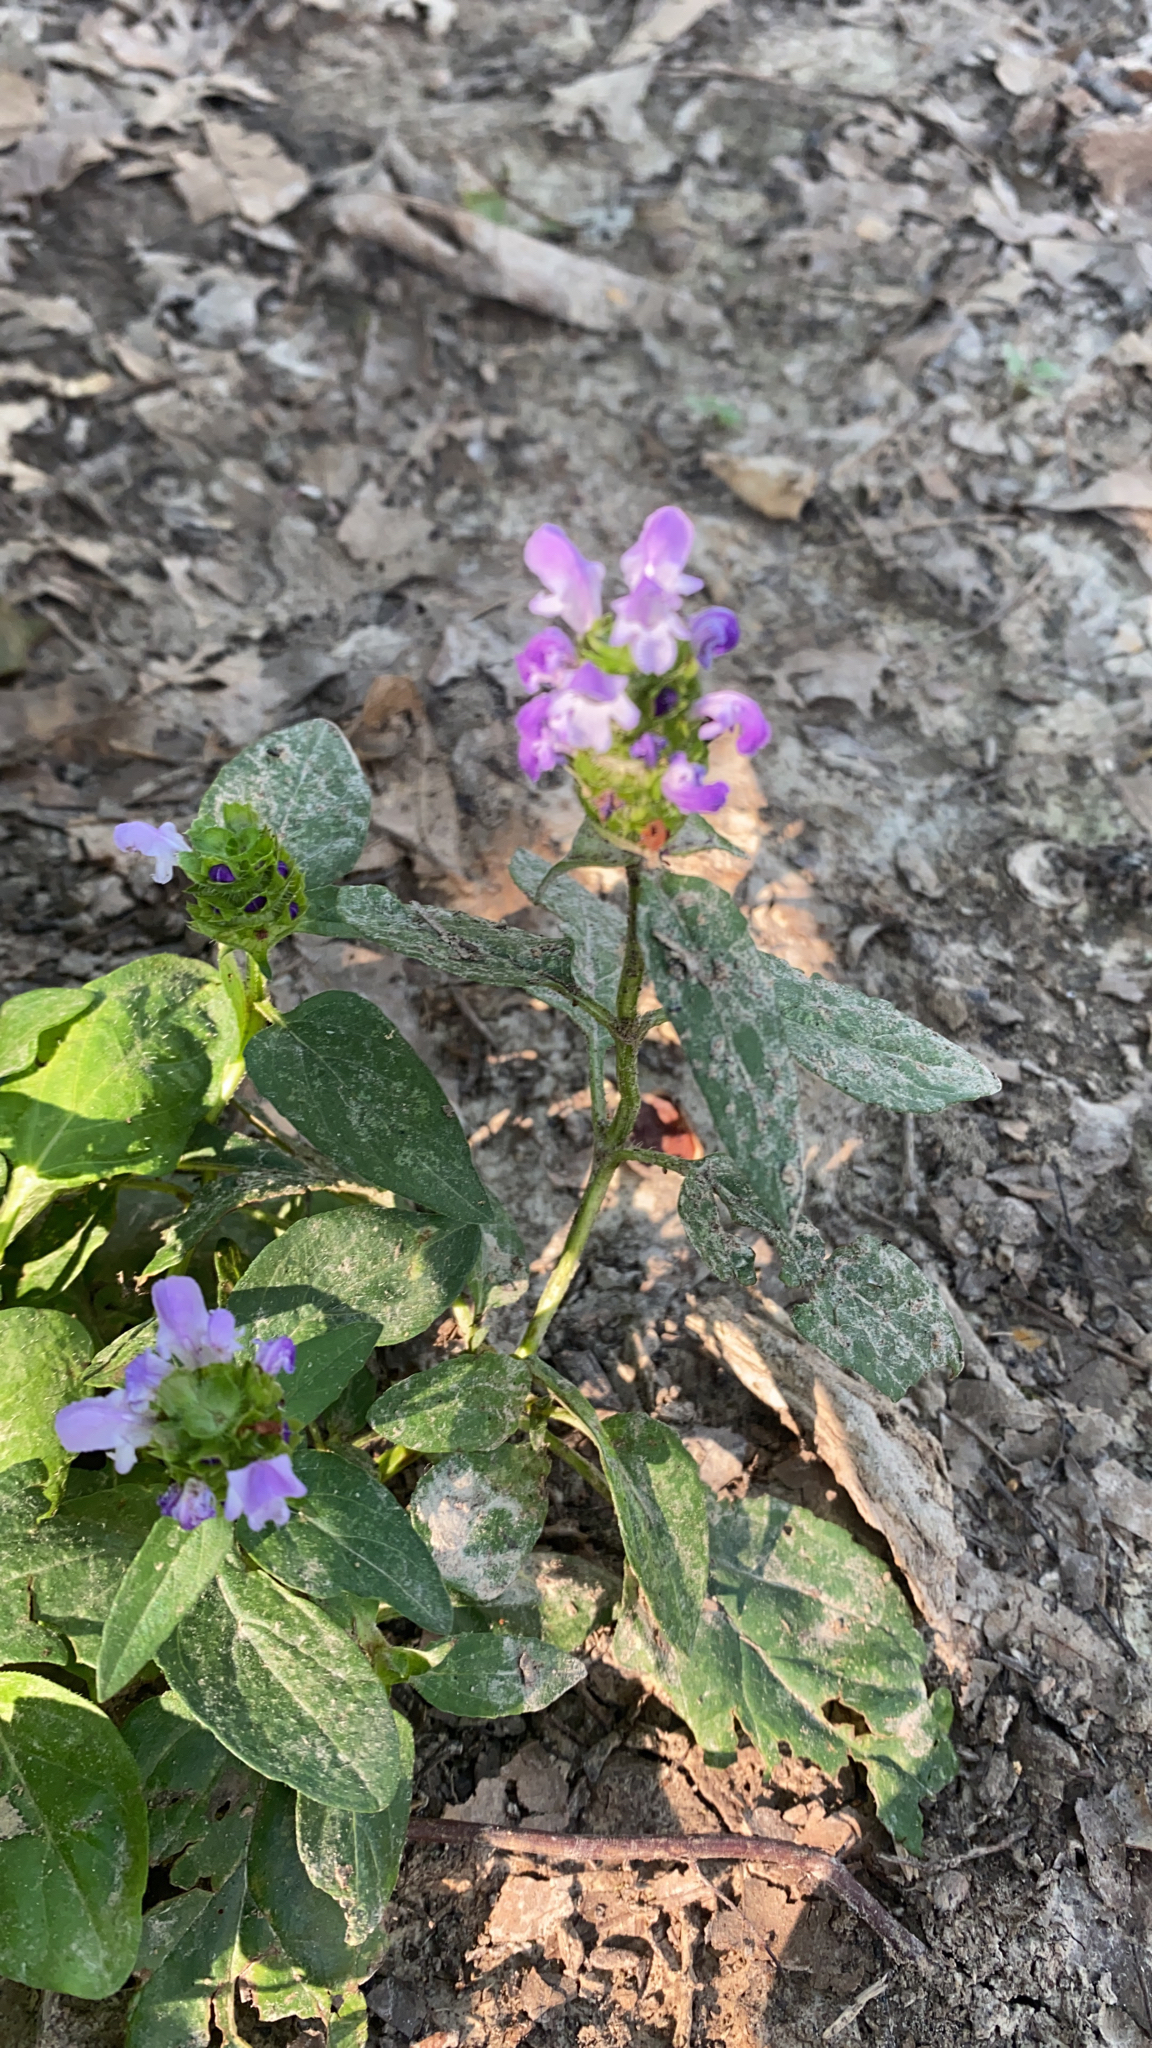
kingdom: Plantae
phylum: Tracheophyta
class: Magnoliopsida
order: Lamiales
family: Lamiaceae
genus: Prunella
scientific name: Prunella vulgaris
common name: Heal-all
